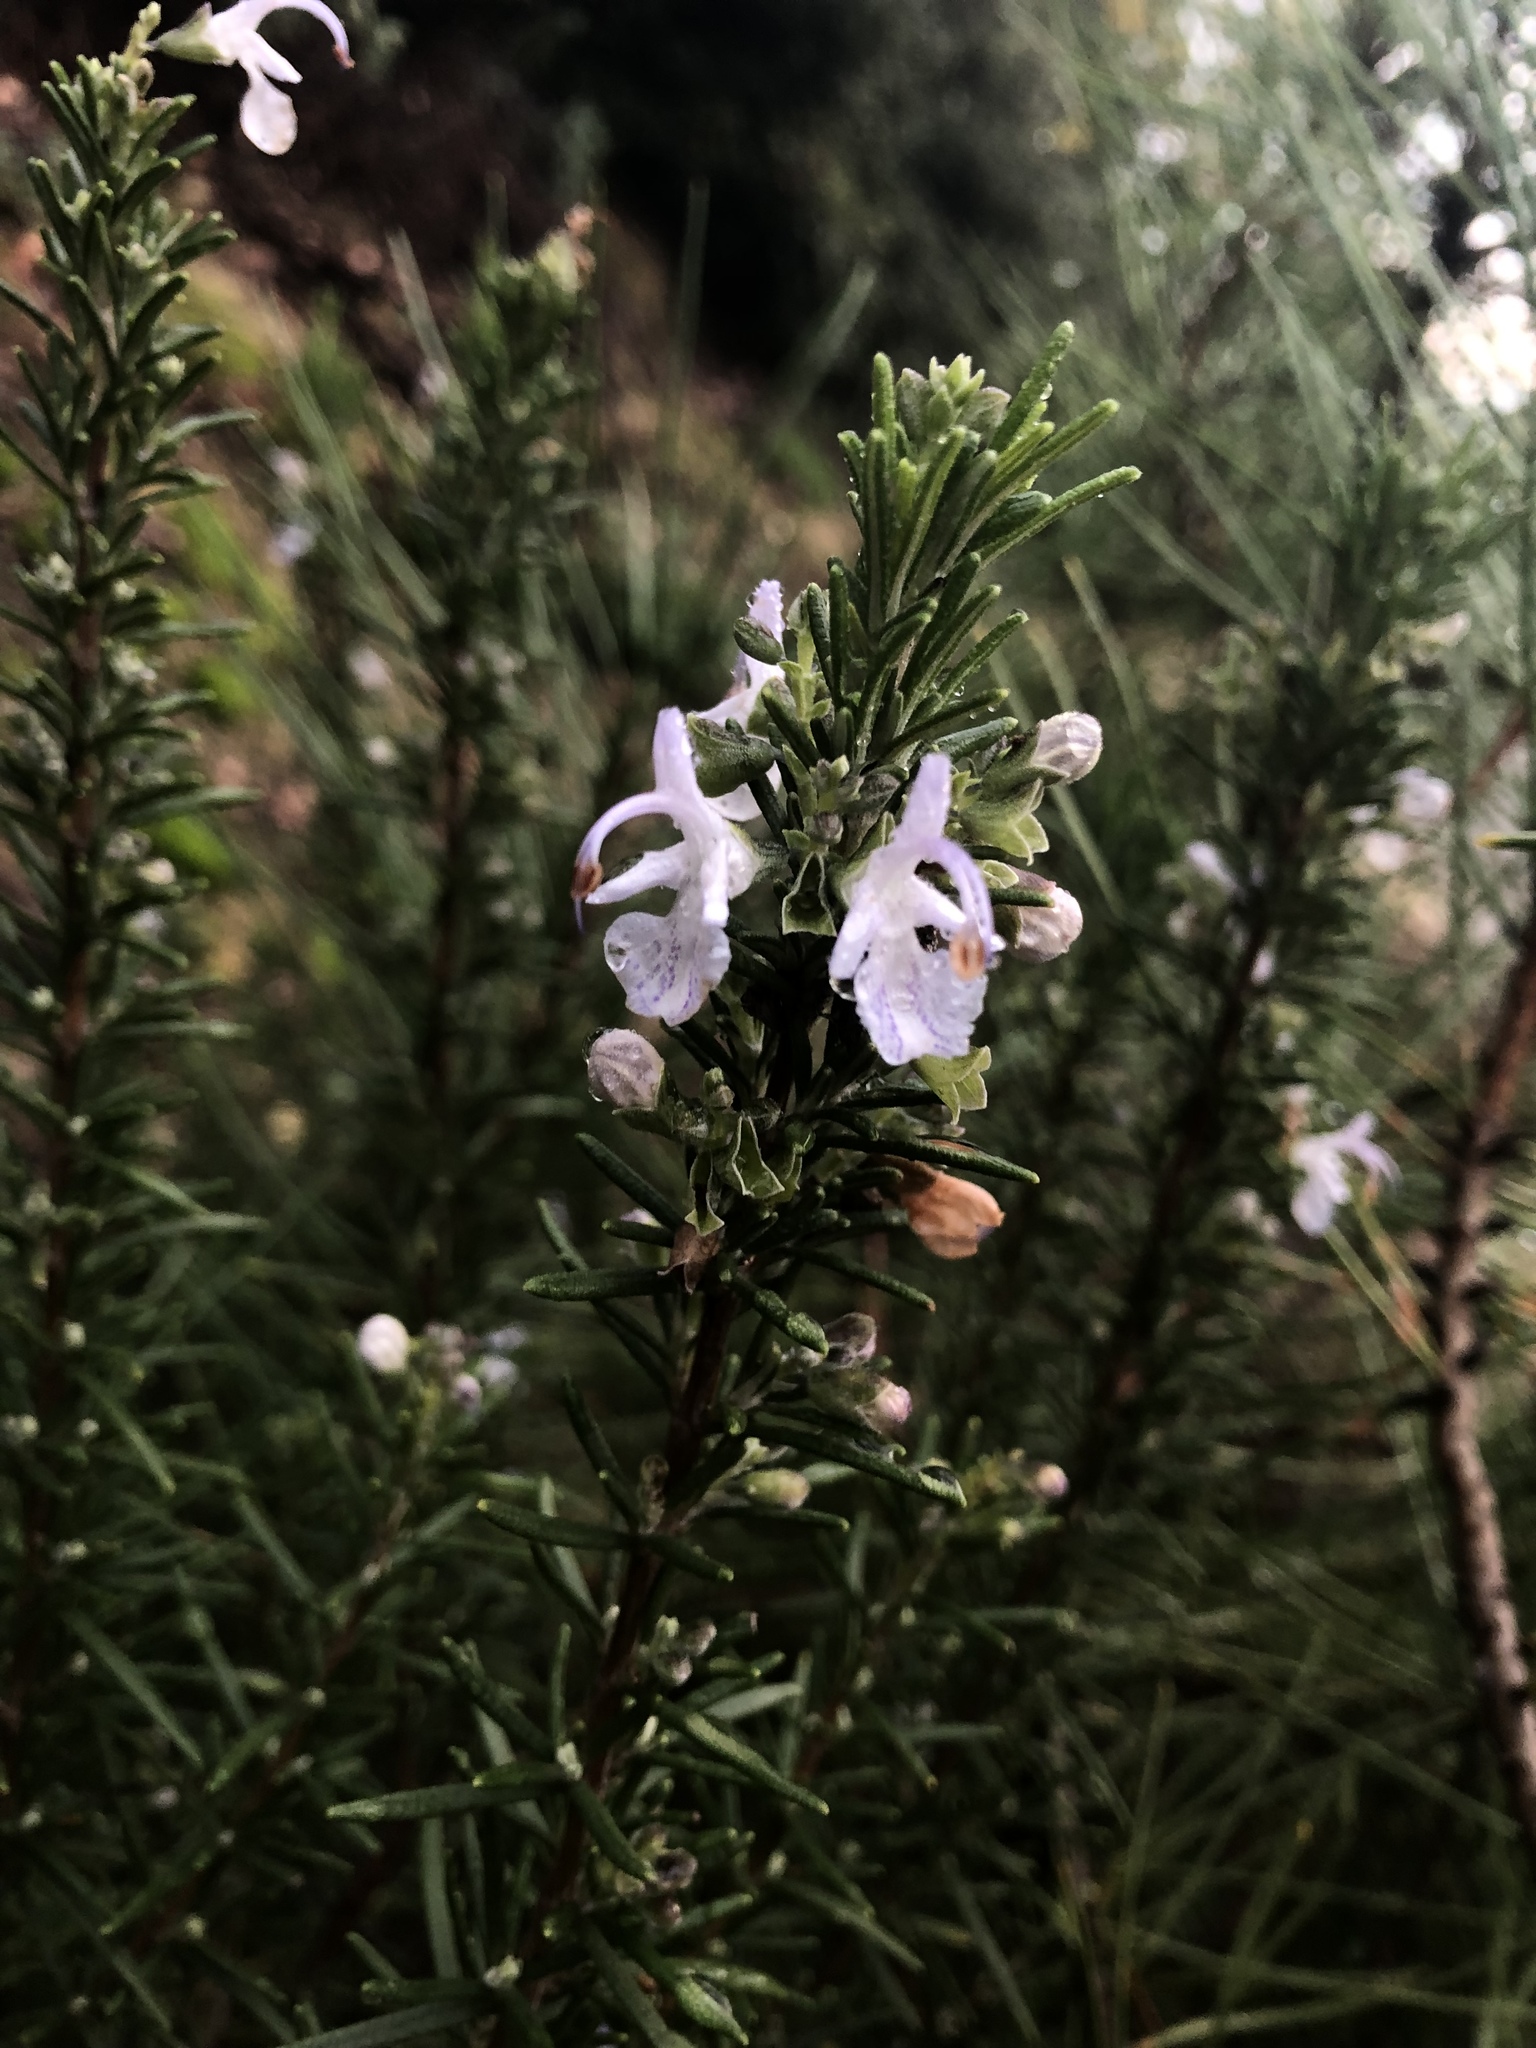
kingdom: Plantae
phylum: Tracheophyta
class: Magnoliopsida
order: Lamiales
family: Lamiaceae
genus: Salvia
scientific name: Salvia rosmarinus
